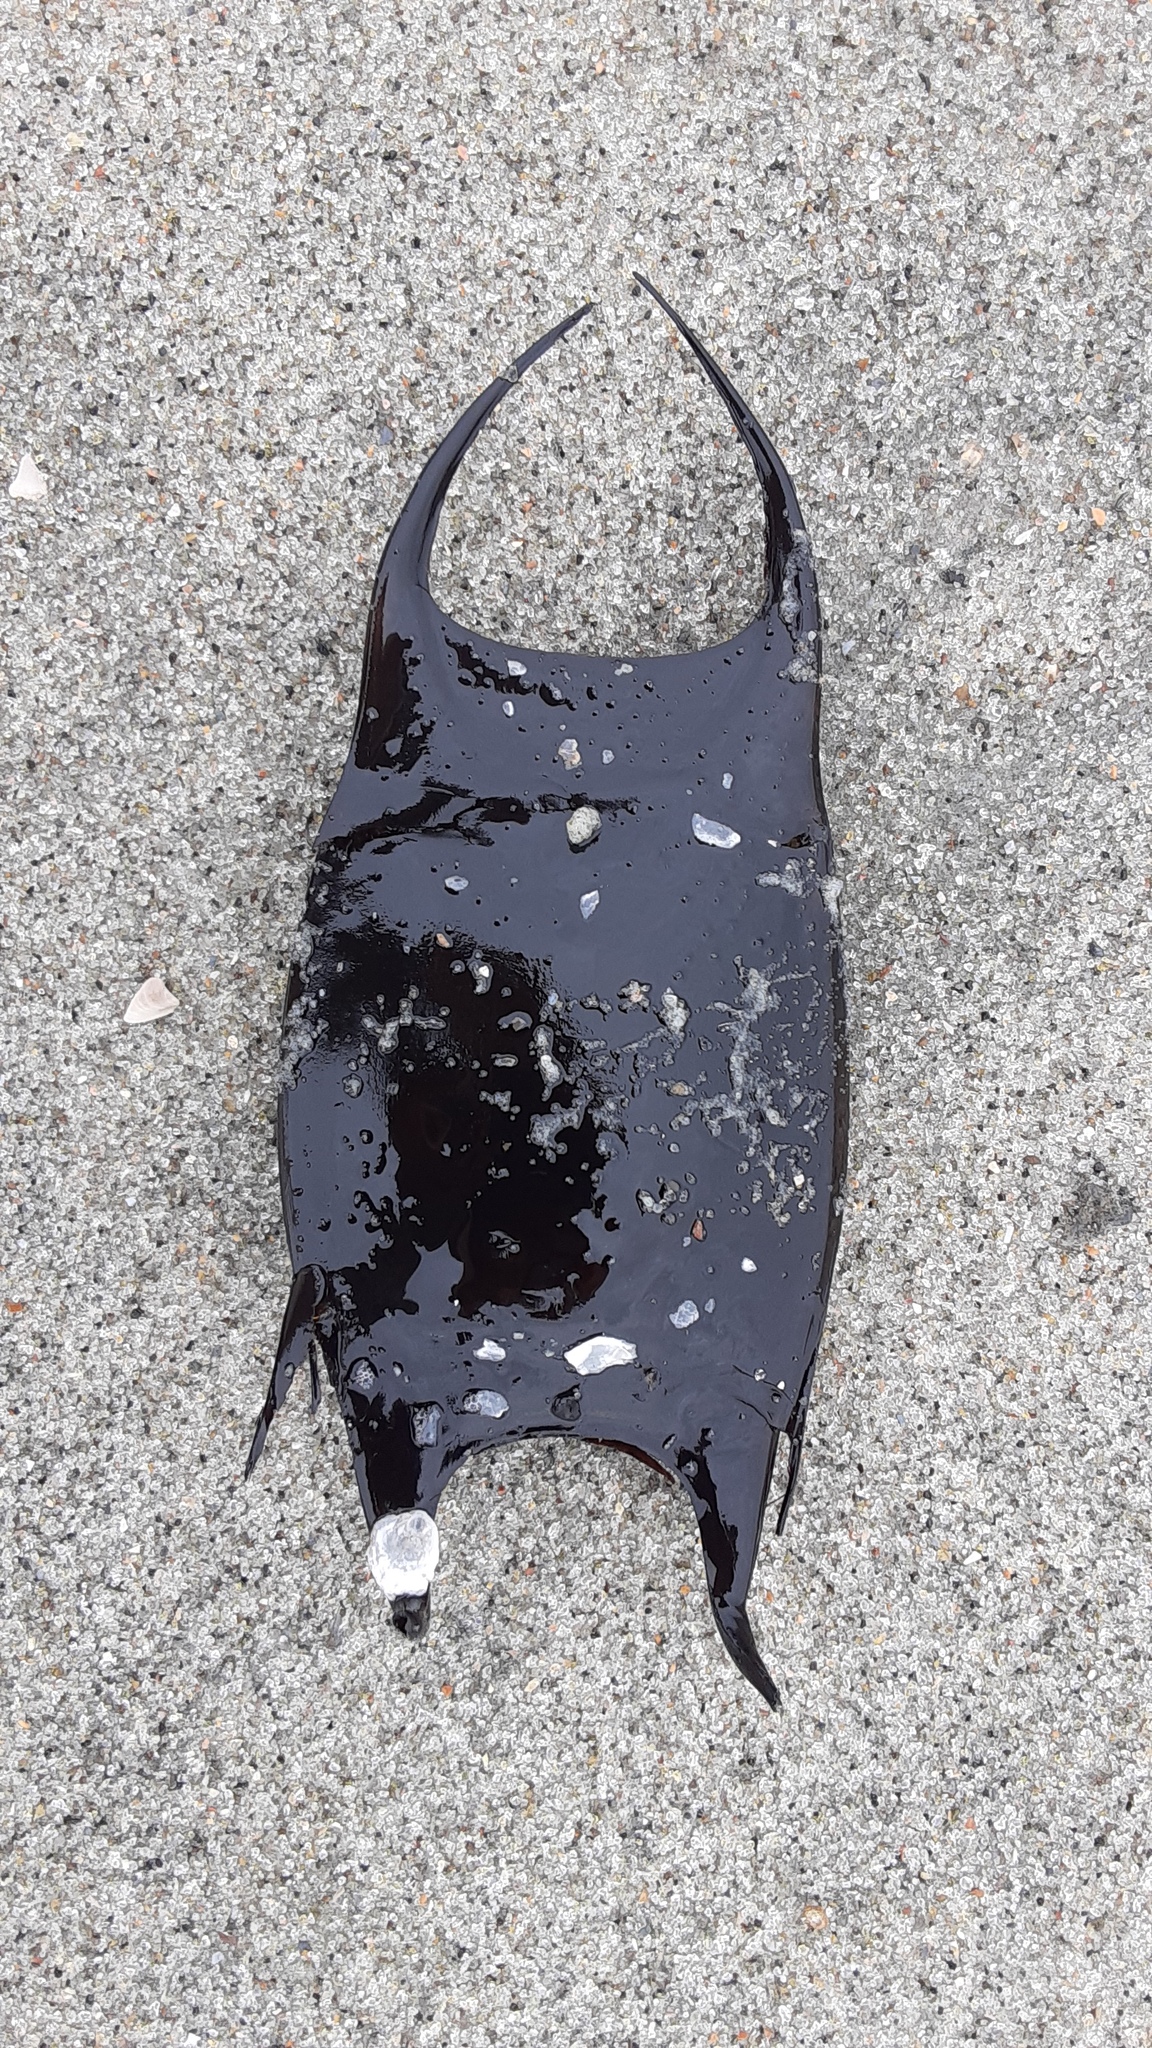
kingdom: Animalia
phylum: Chordata
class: Elasmobranchii
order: Rajiformes
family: Rajidae
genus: Raja
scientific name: Raja eglanteria
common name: Clearnose skate
